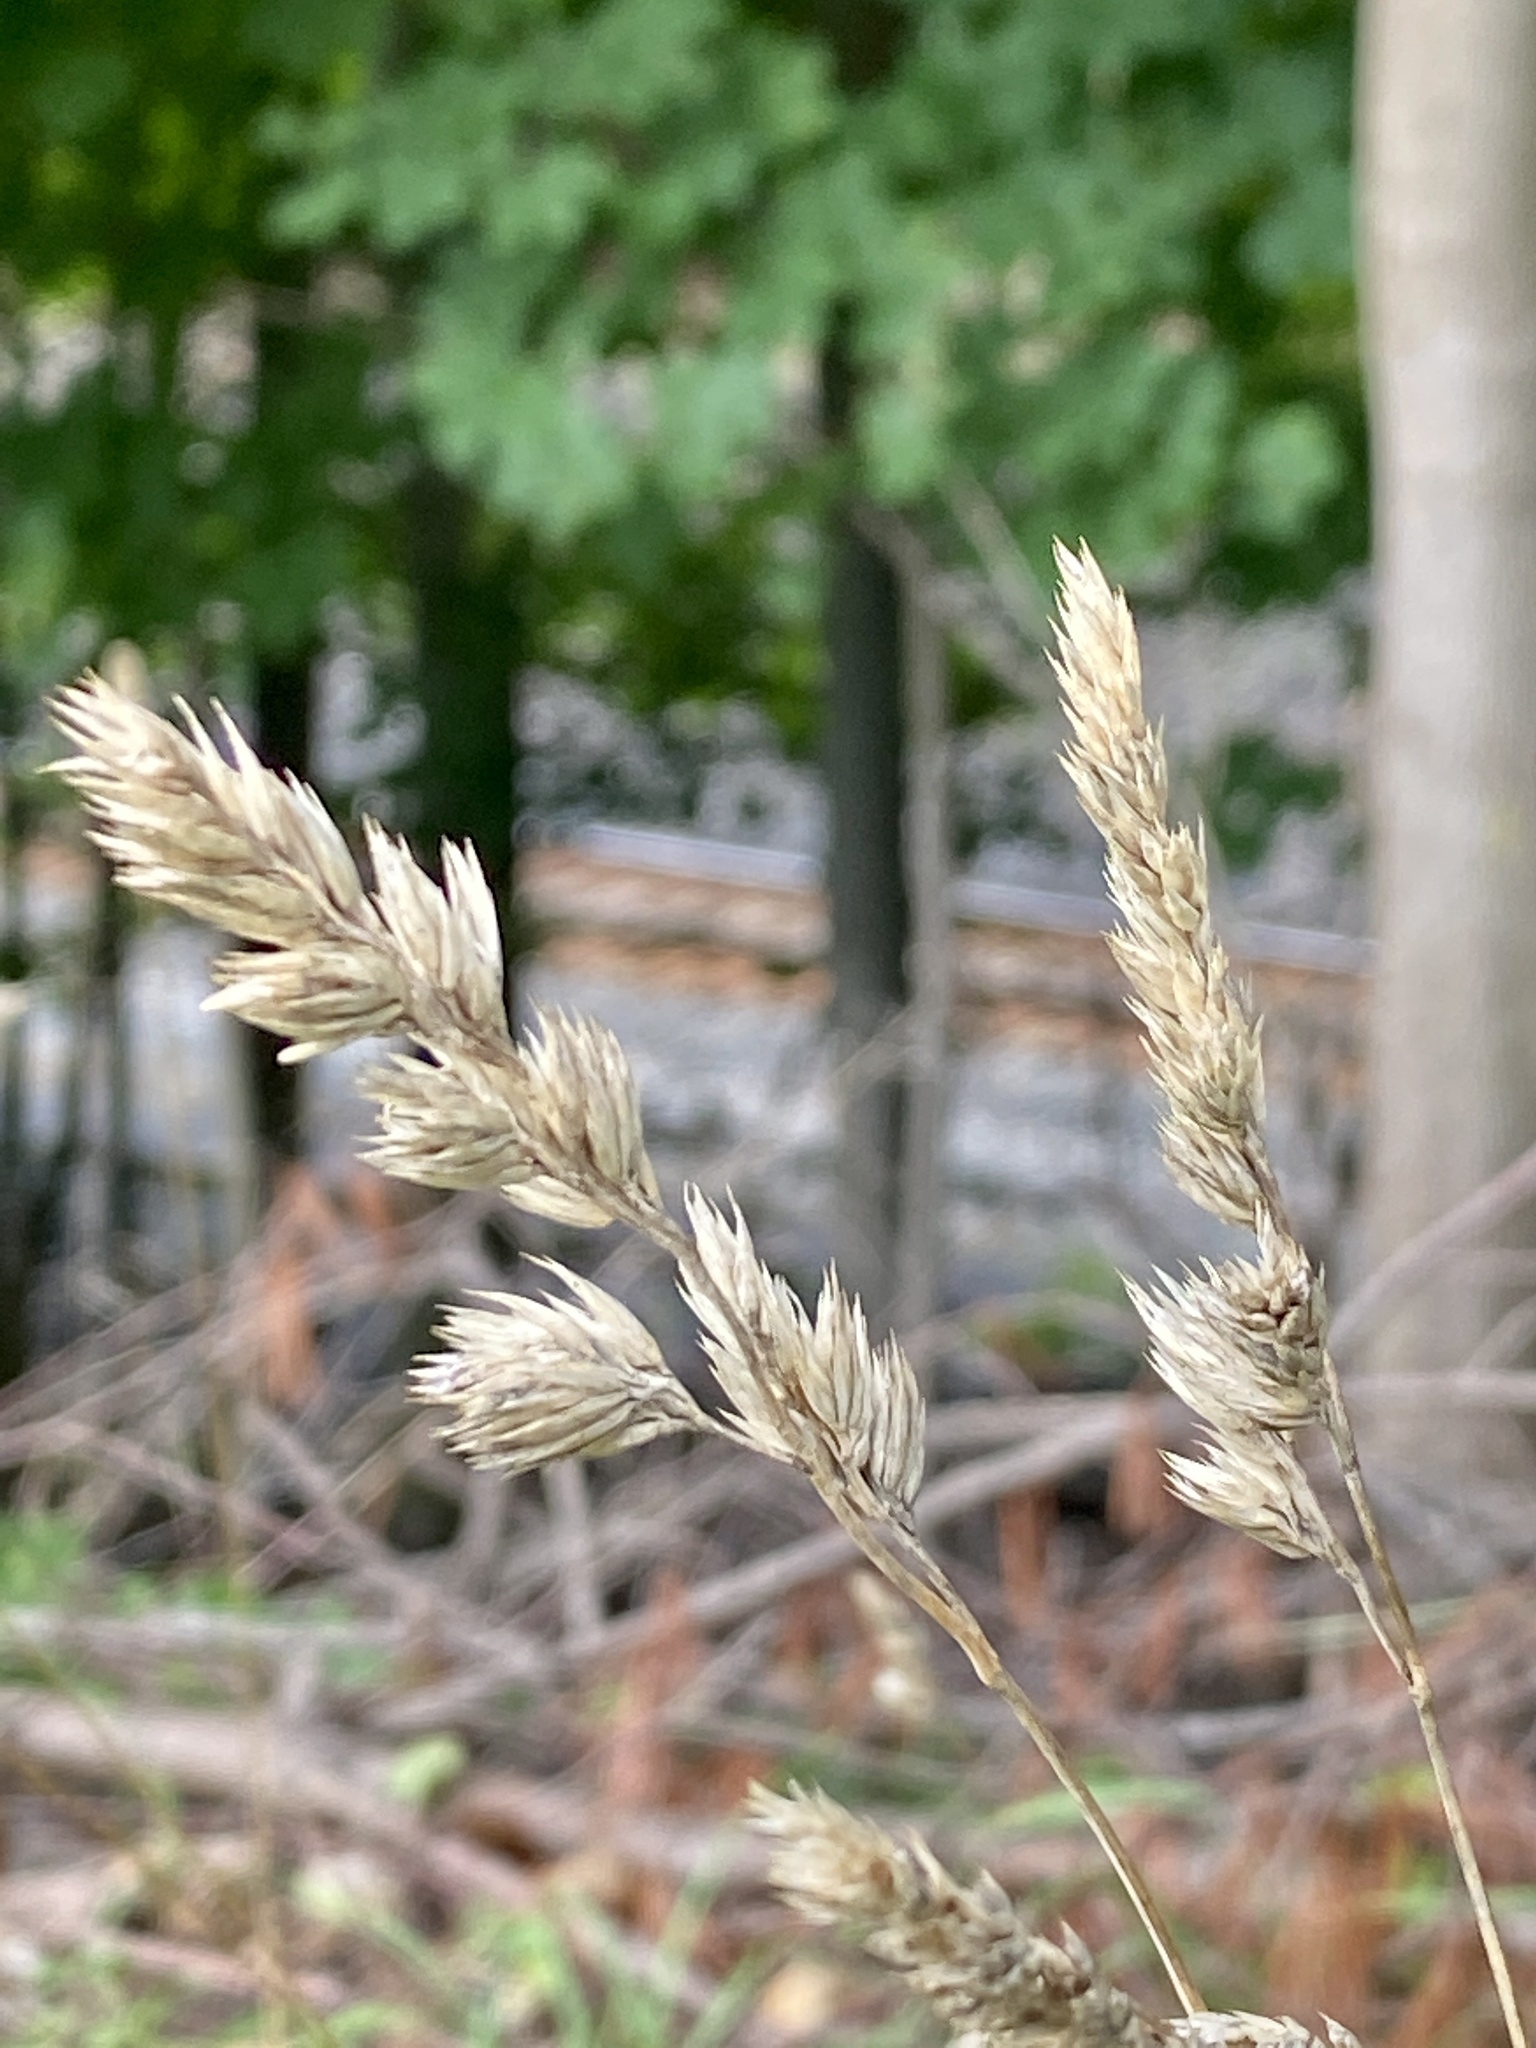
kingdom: Plantae
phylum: Tracheophyta
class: Liliopsida
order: Poales
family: Poaceae
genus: Dactylis
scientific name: Dactylis glomerata
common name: Orchardgrass
